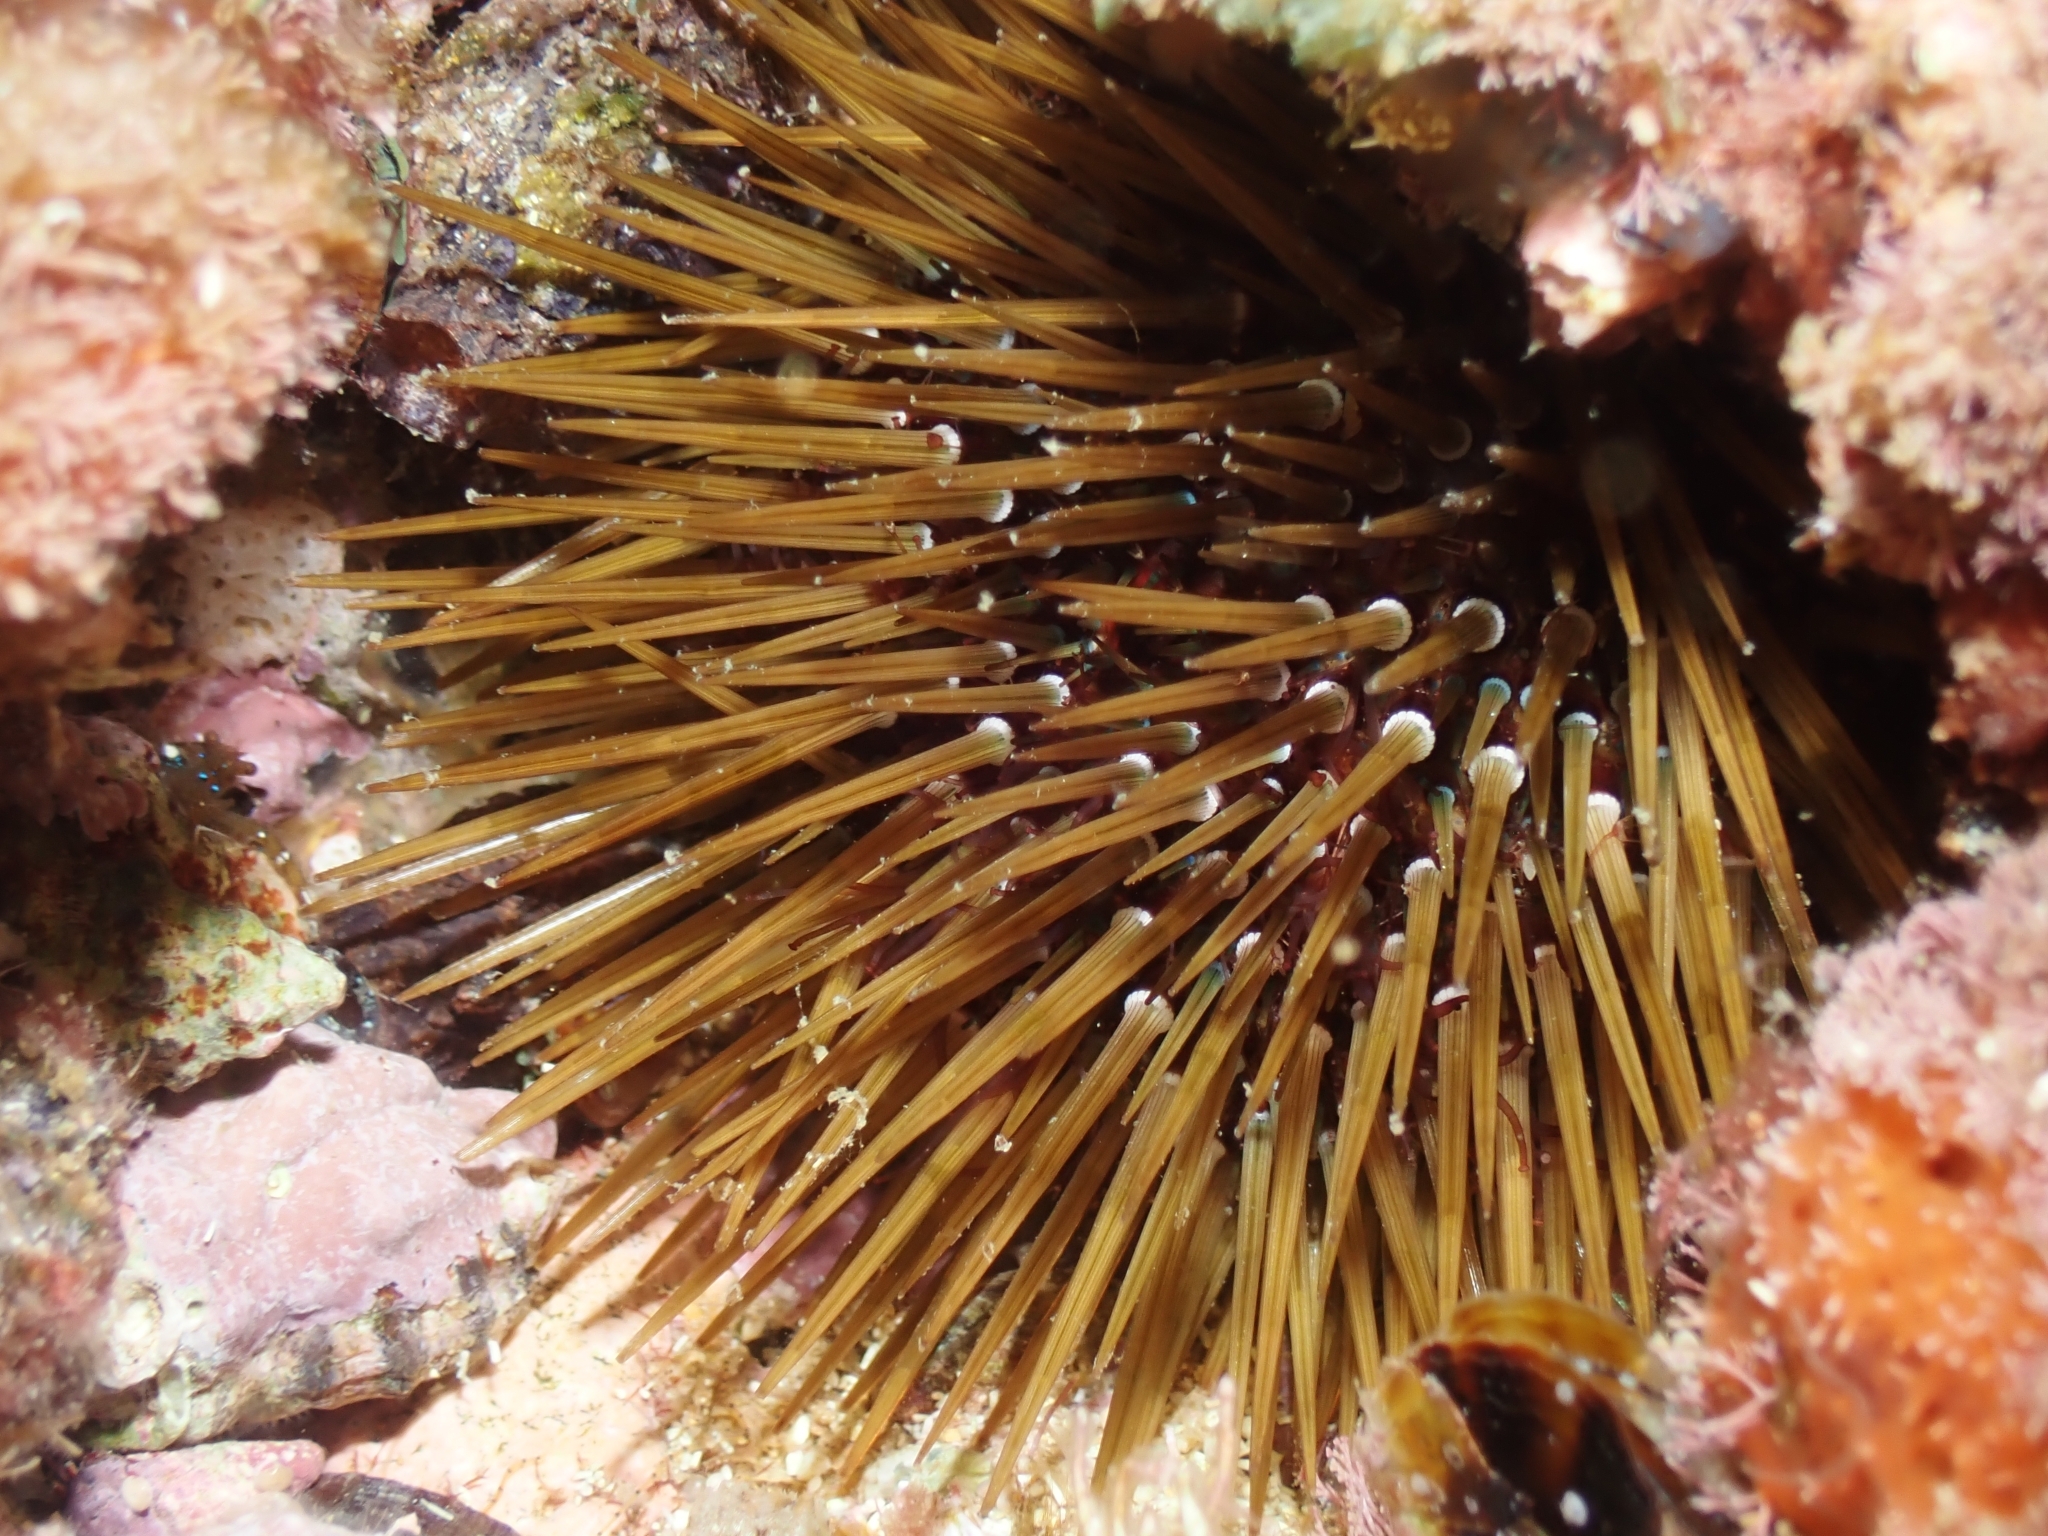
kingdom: Animalia
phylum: Echinodermata
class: Echinoidea
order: Camarodonta
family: Parechinidae
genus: Paracentrotus
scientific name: Paracentrotus lividus
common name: Purple sea urchin
